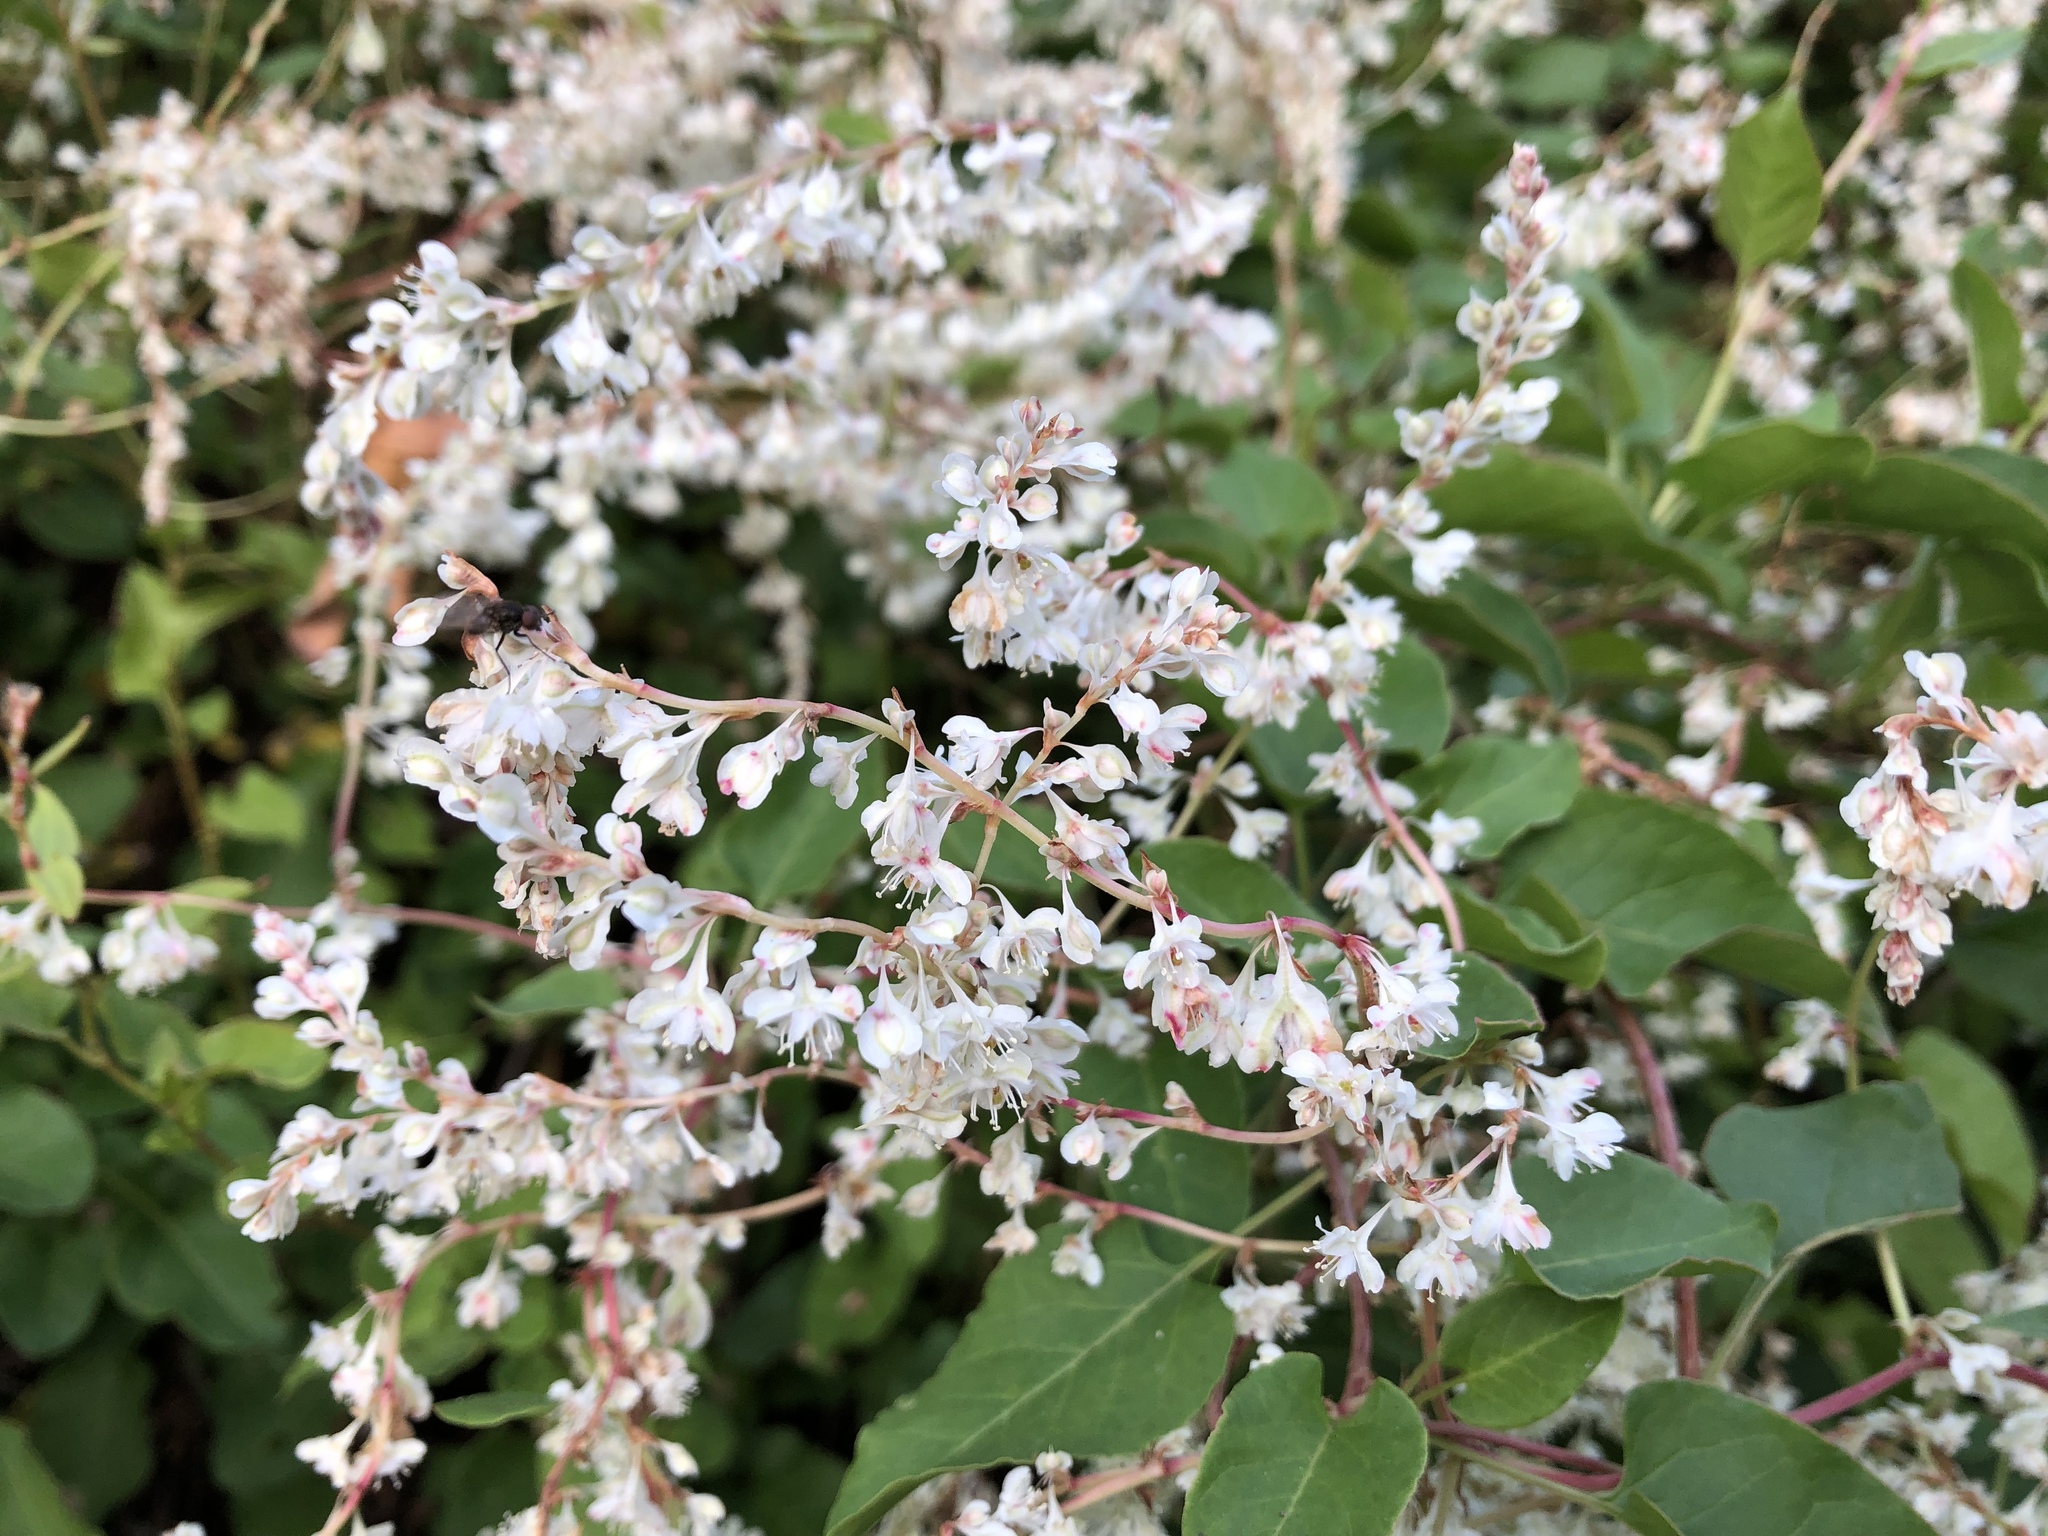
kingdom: Plantae
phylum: Tracheophyta
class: Magnoliopsida
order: Caryophyllales
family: Polygonaceae
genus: Fallopia
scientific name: Fallopia baldschuanica
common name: Russian-vine
